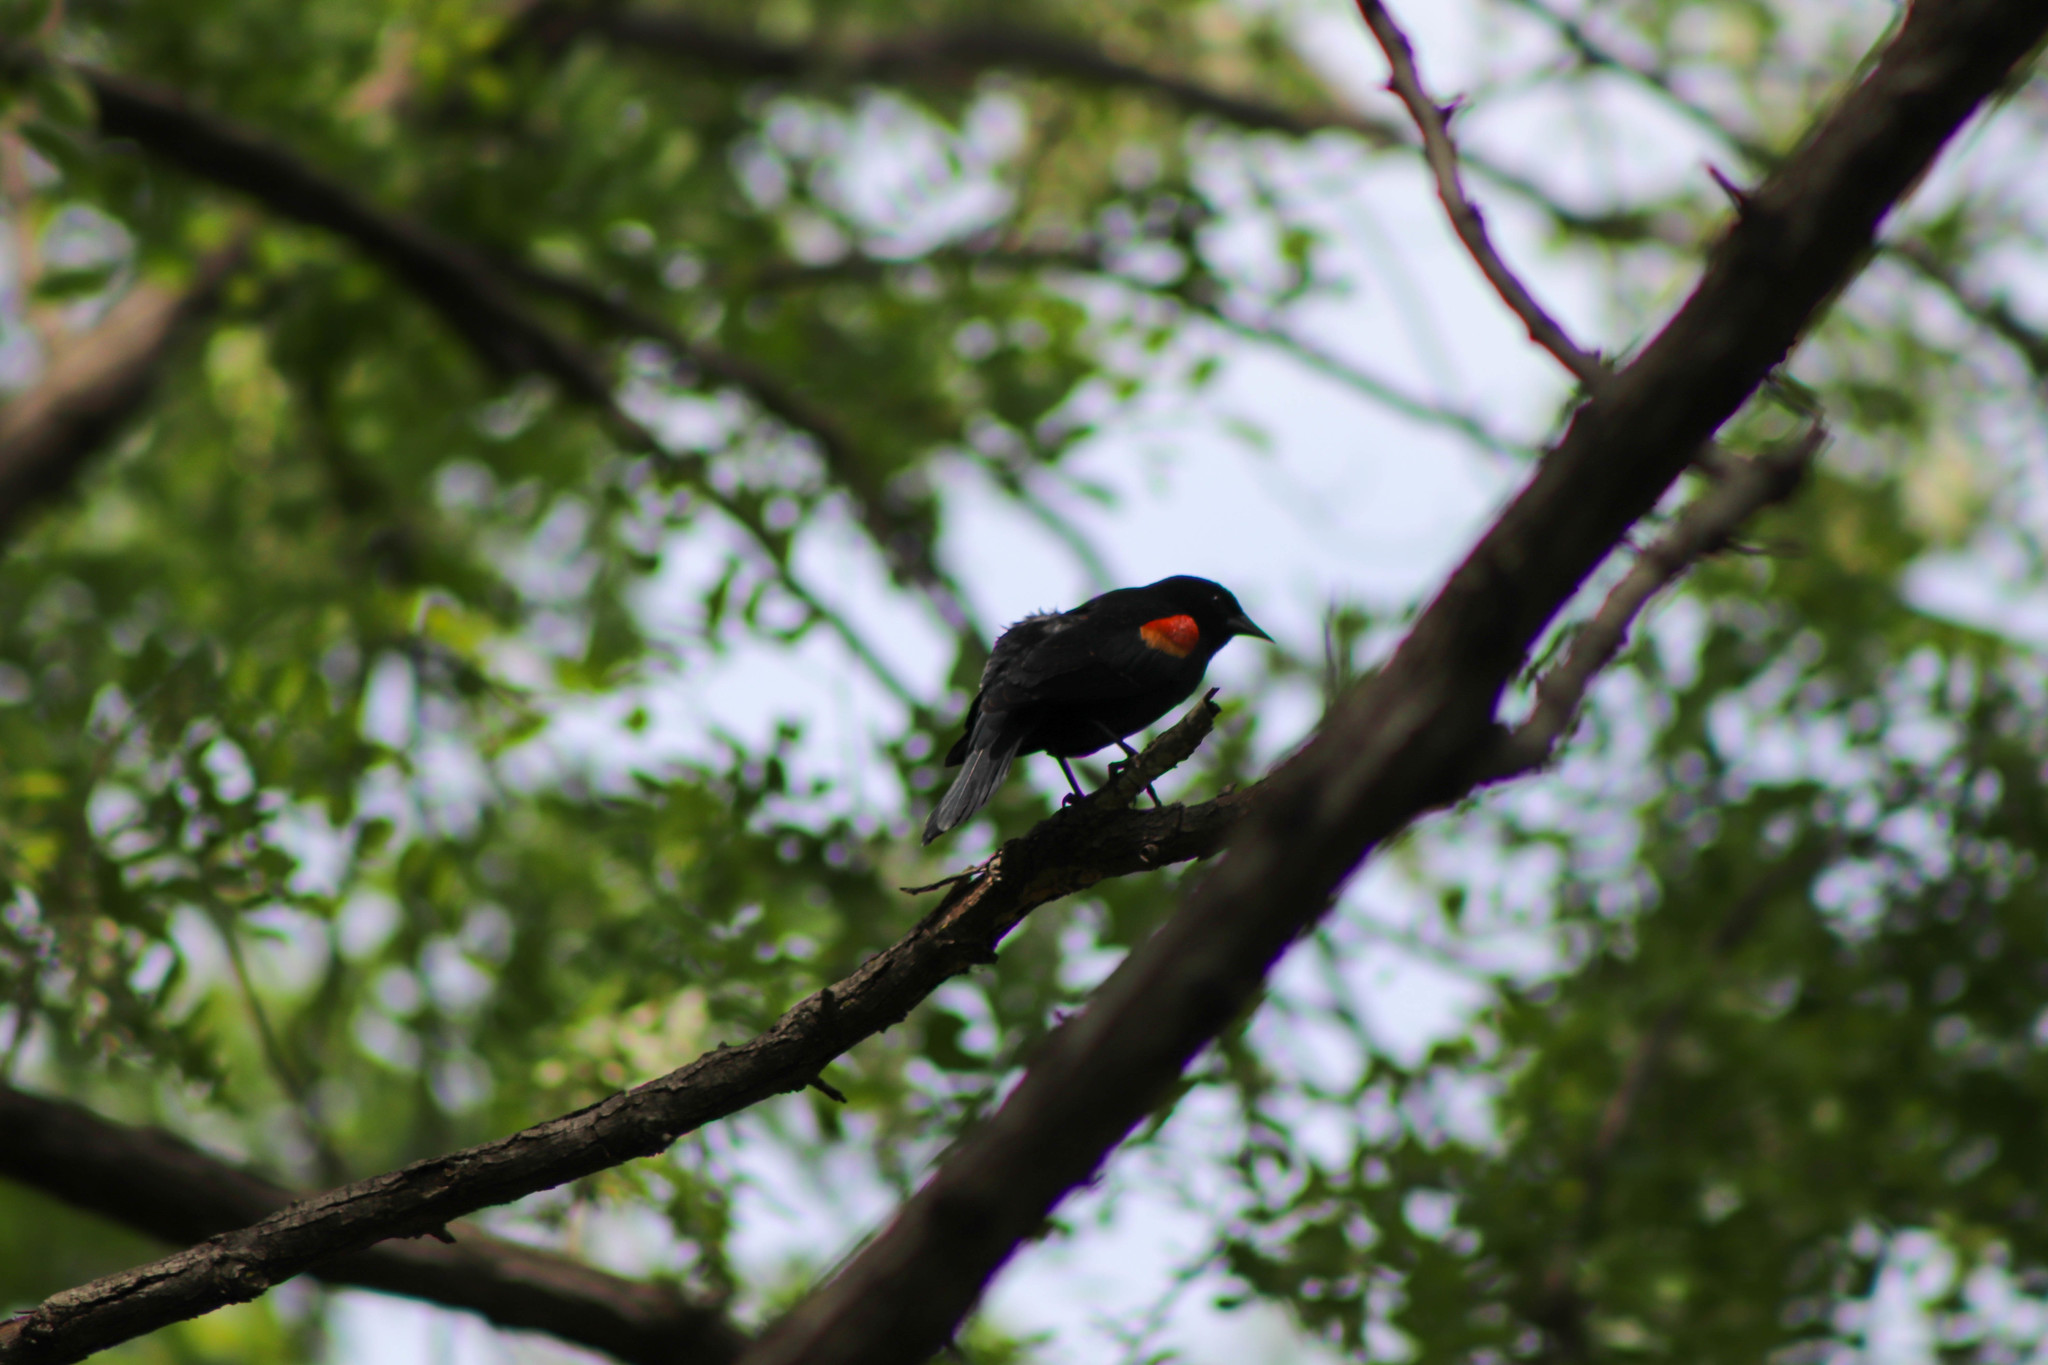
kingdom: Animalia
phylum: Chordata
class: Aves
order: Passeriformes
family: Icteridae
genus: Agelaius
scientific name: Agelaius phoeniceus
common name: Red-winged blackbird
